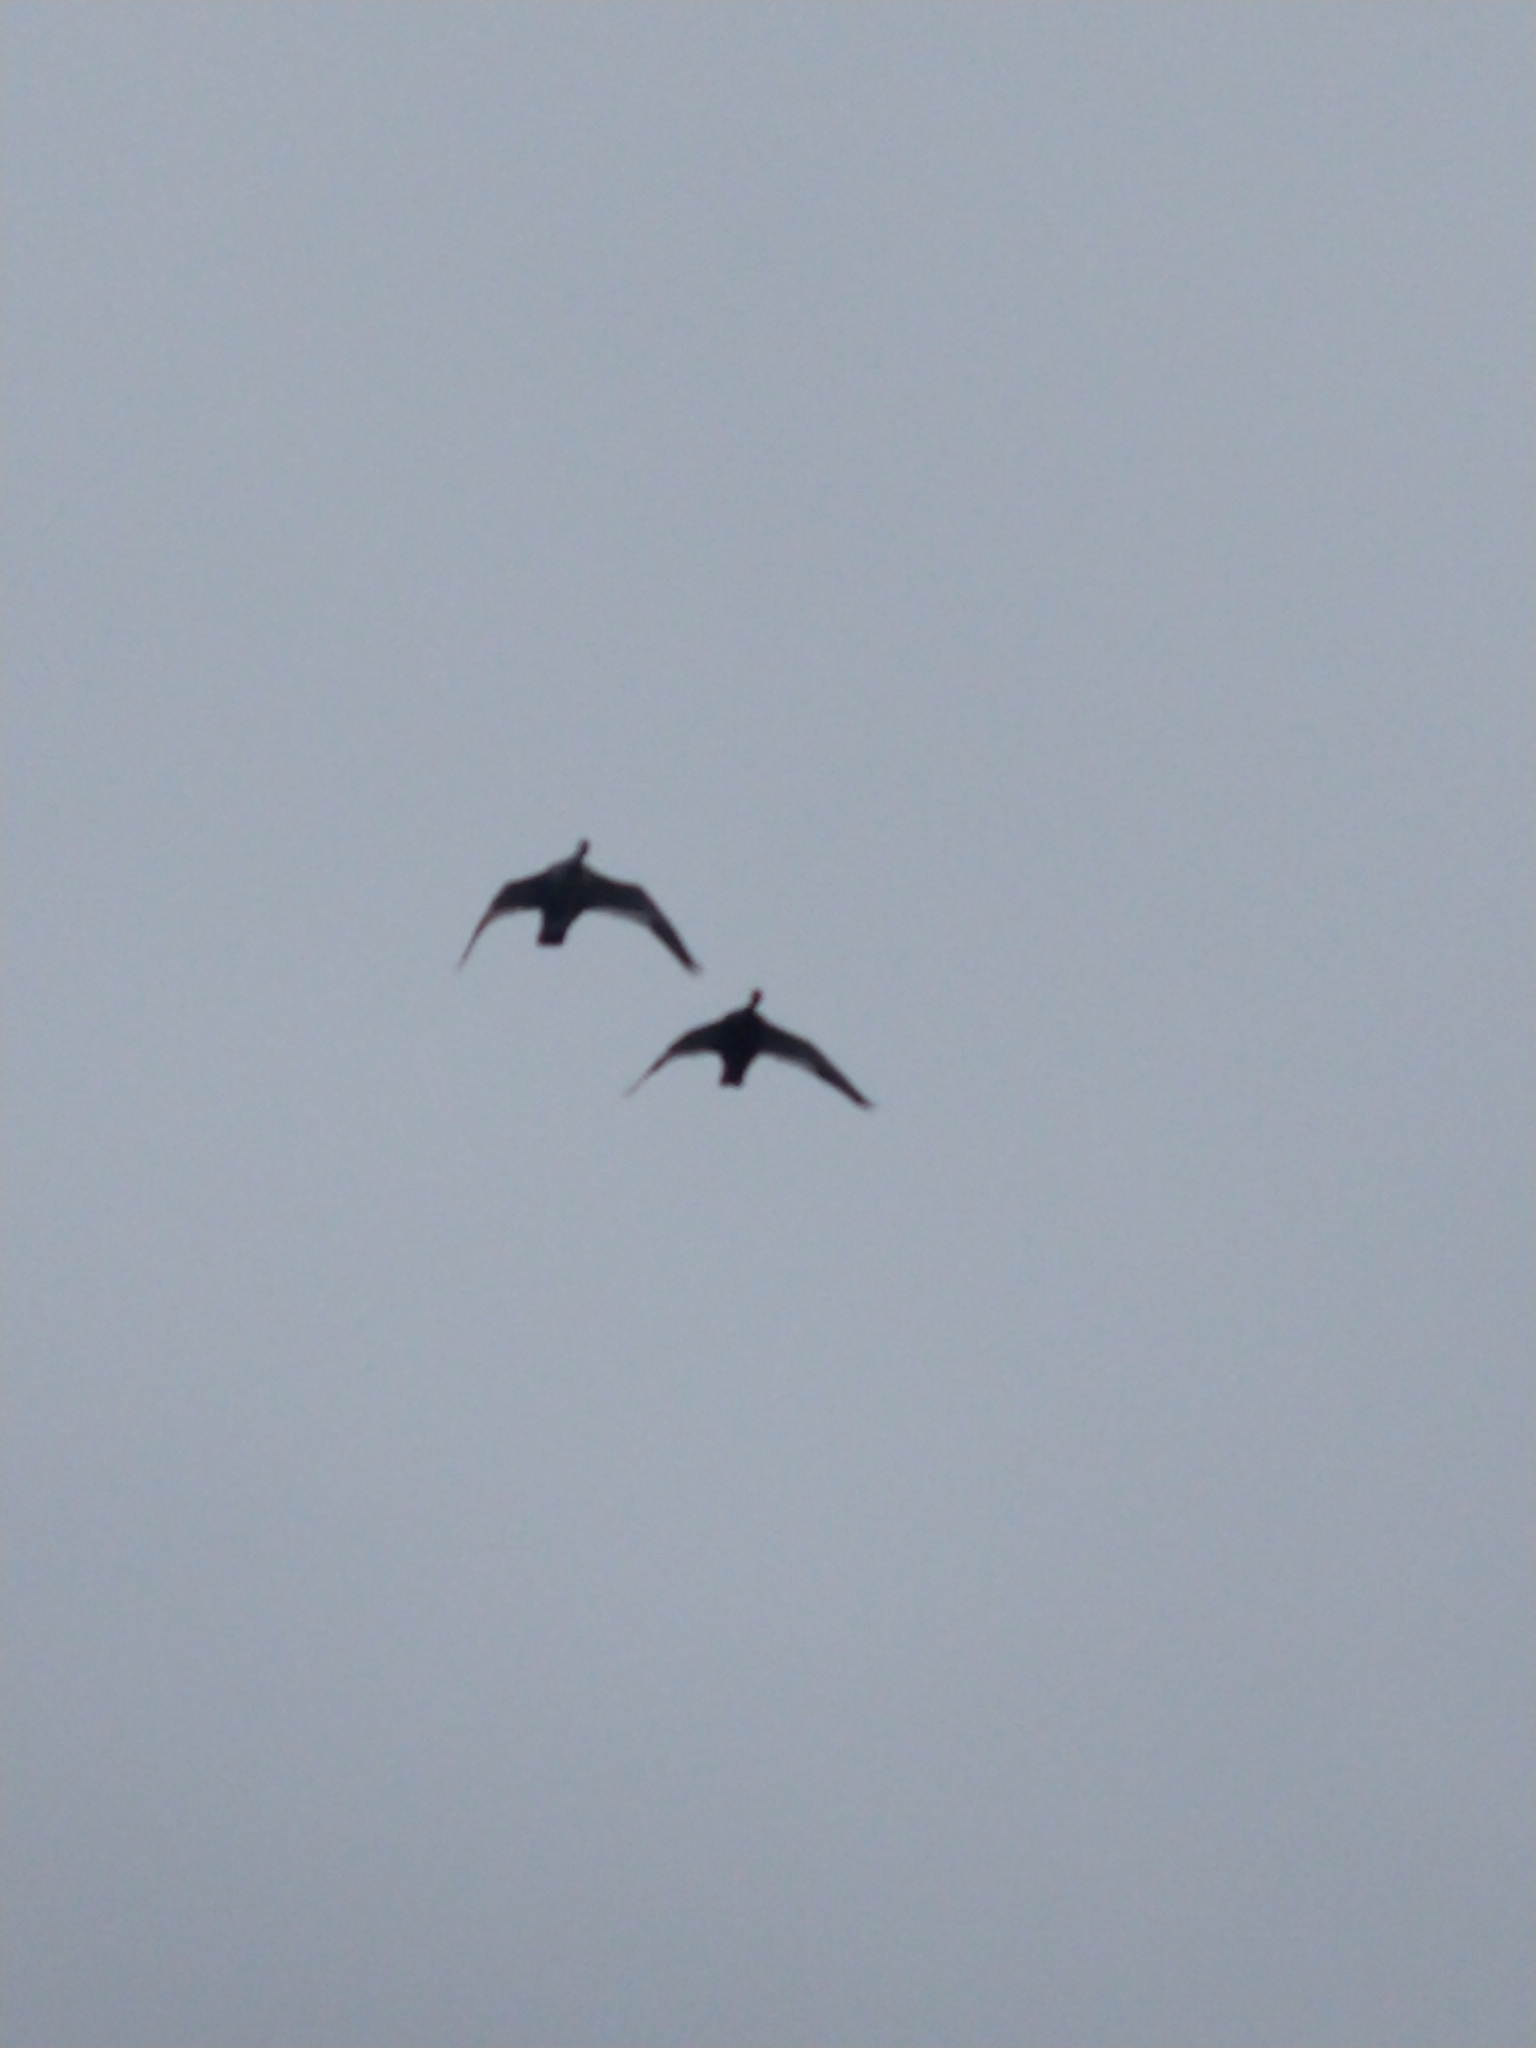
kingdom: Animalia
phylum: Chordata
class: Aves
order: Anseriformes
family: Anatidae
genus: Chloephaga
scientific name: Chloephaga picta
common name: Upland goose
